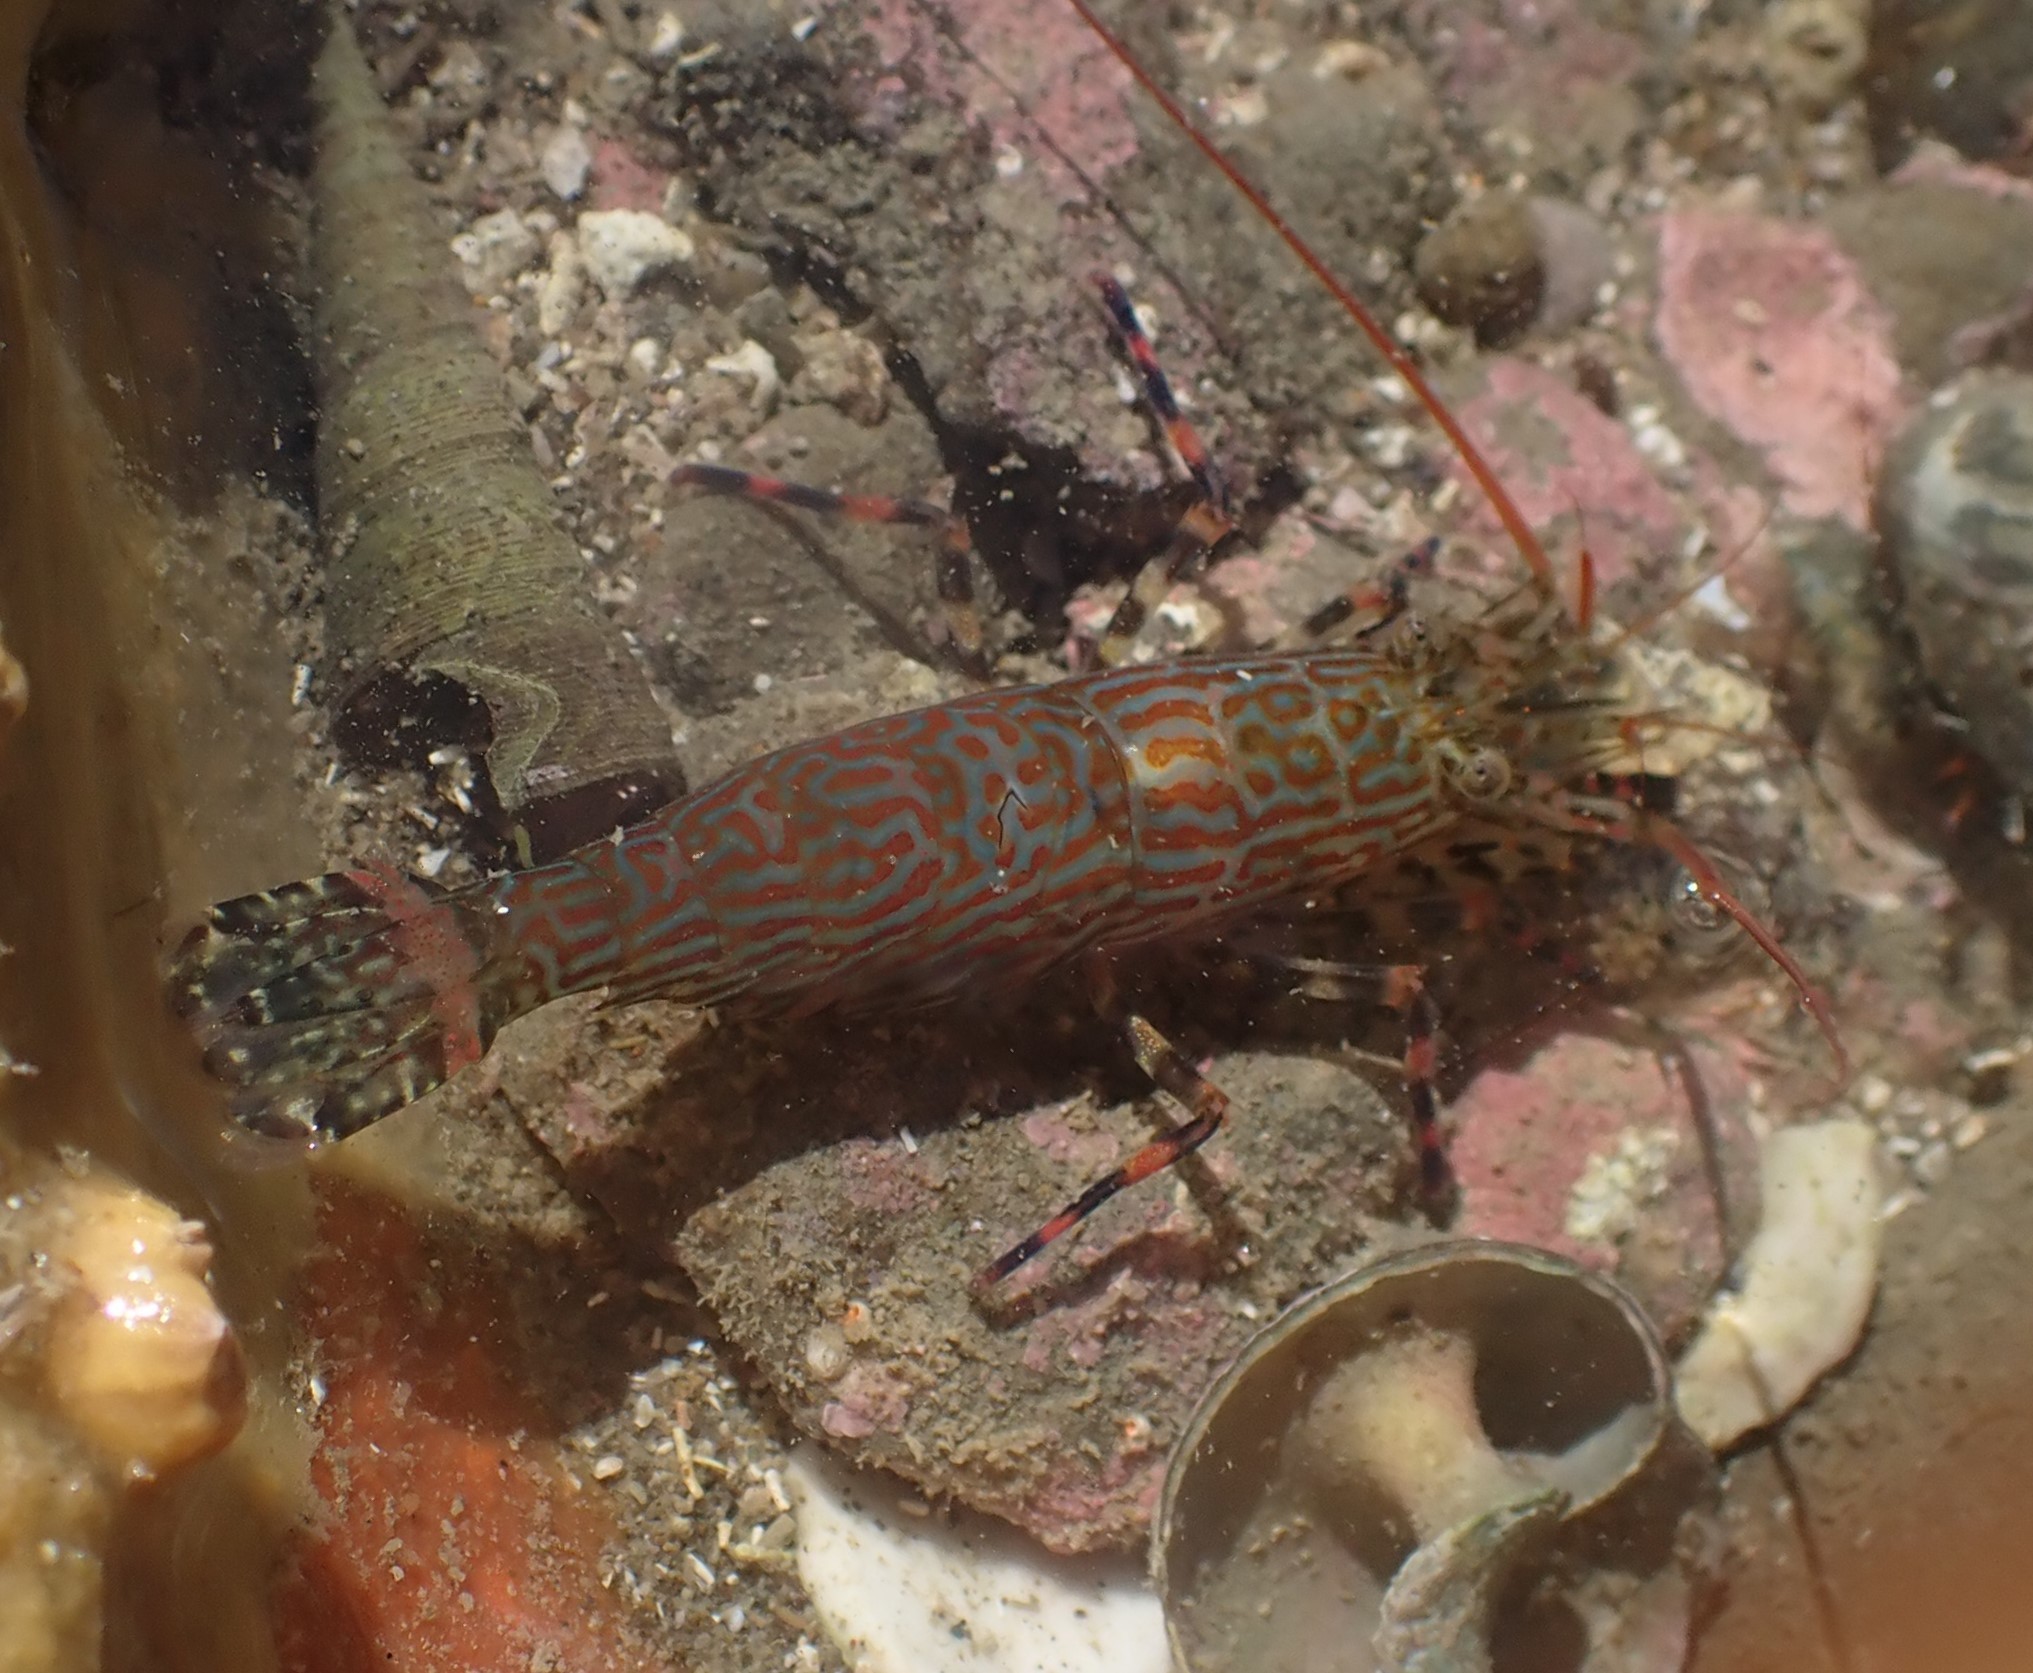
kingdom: Animalia
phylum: Arthropoda
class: Malacostraca
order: Decapoda
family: Hippolytidae
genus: Alope
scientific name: Alope spinifrons
